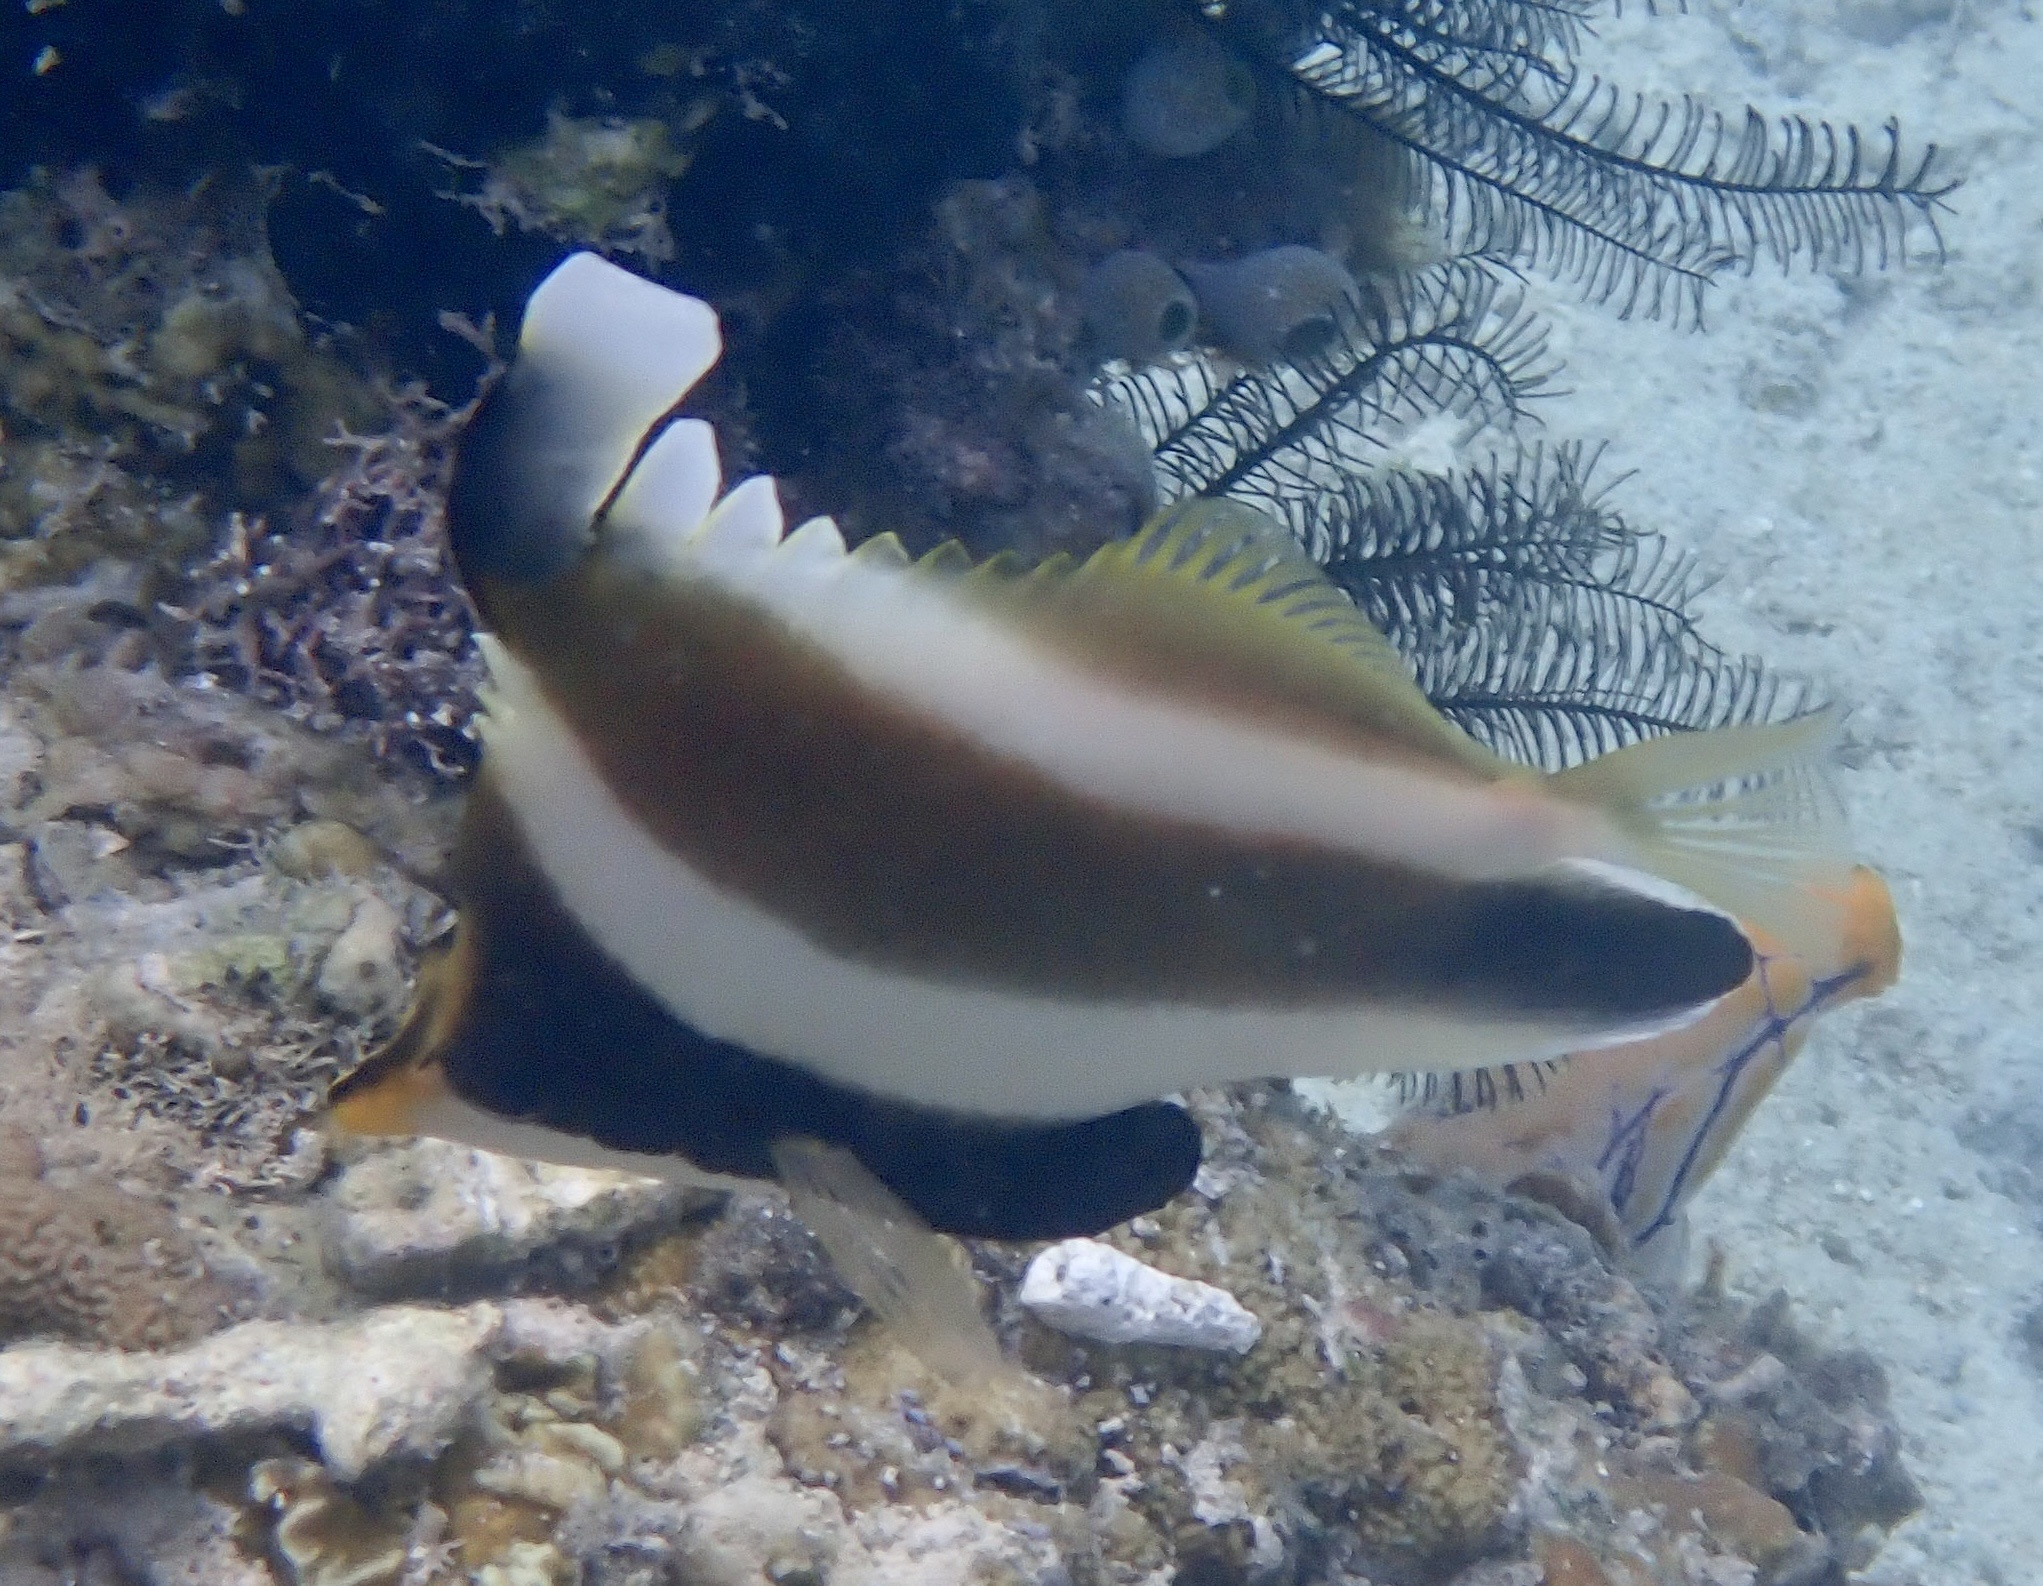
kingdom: Animalia
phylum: Chordata
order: Perciformes
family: Chaetodontidae
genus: Heniochus
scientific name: Heniochus chrysostomus
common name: Horned bannerfish
